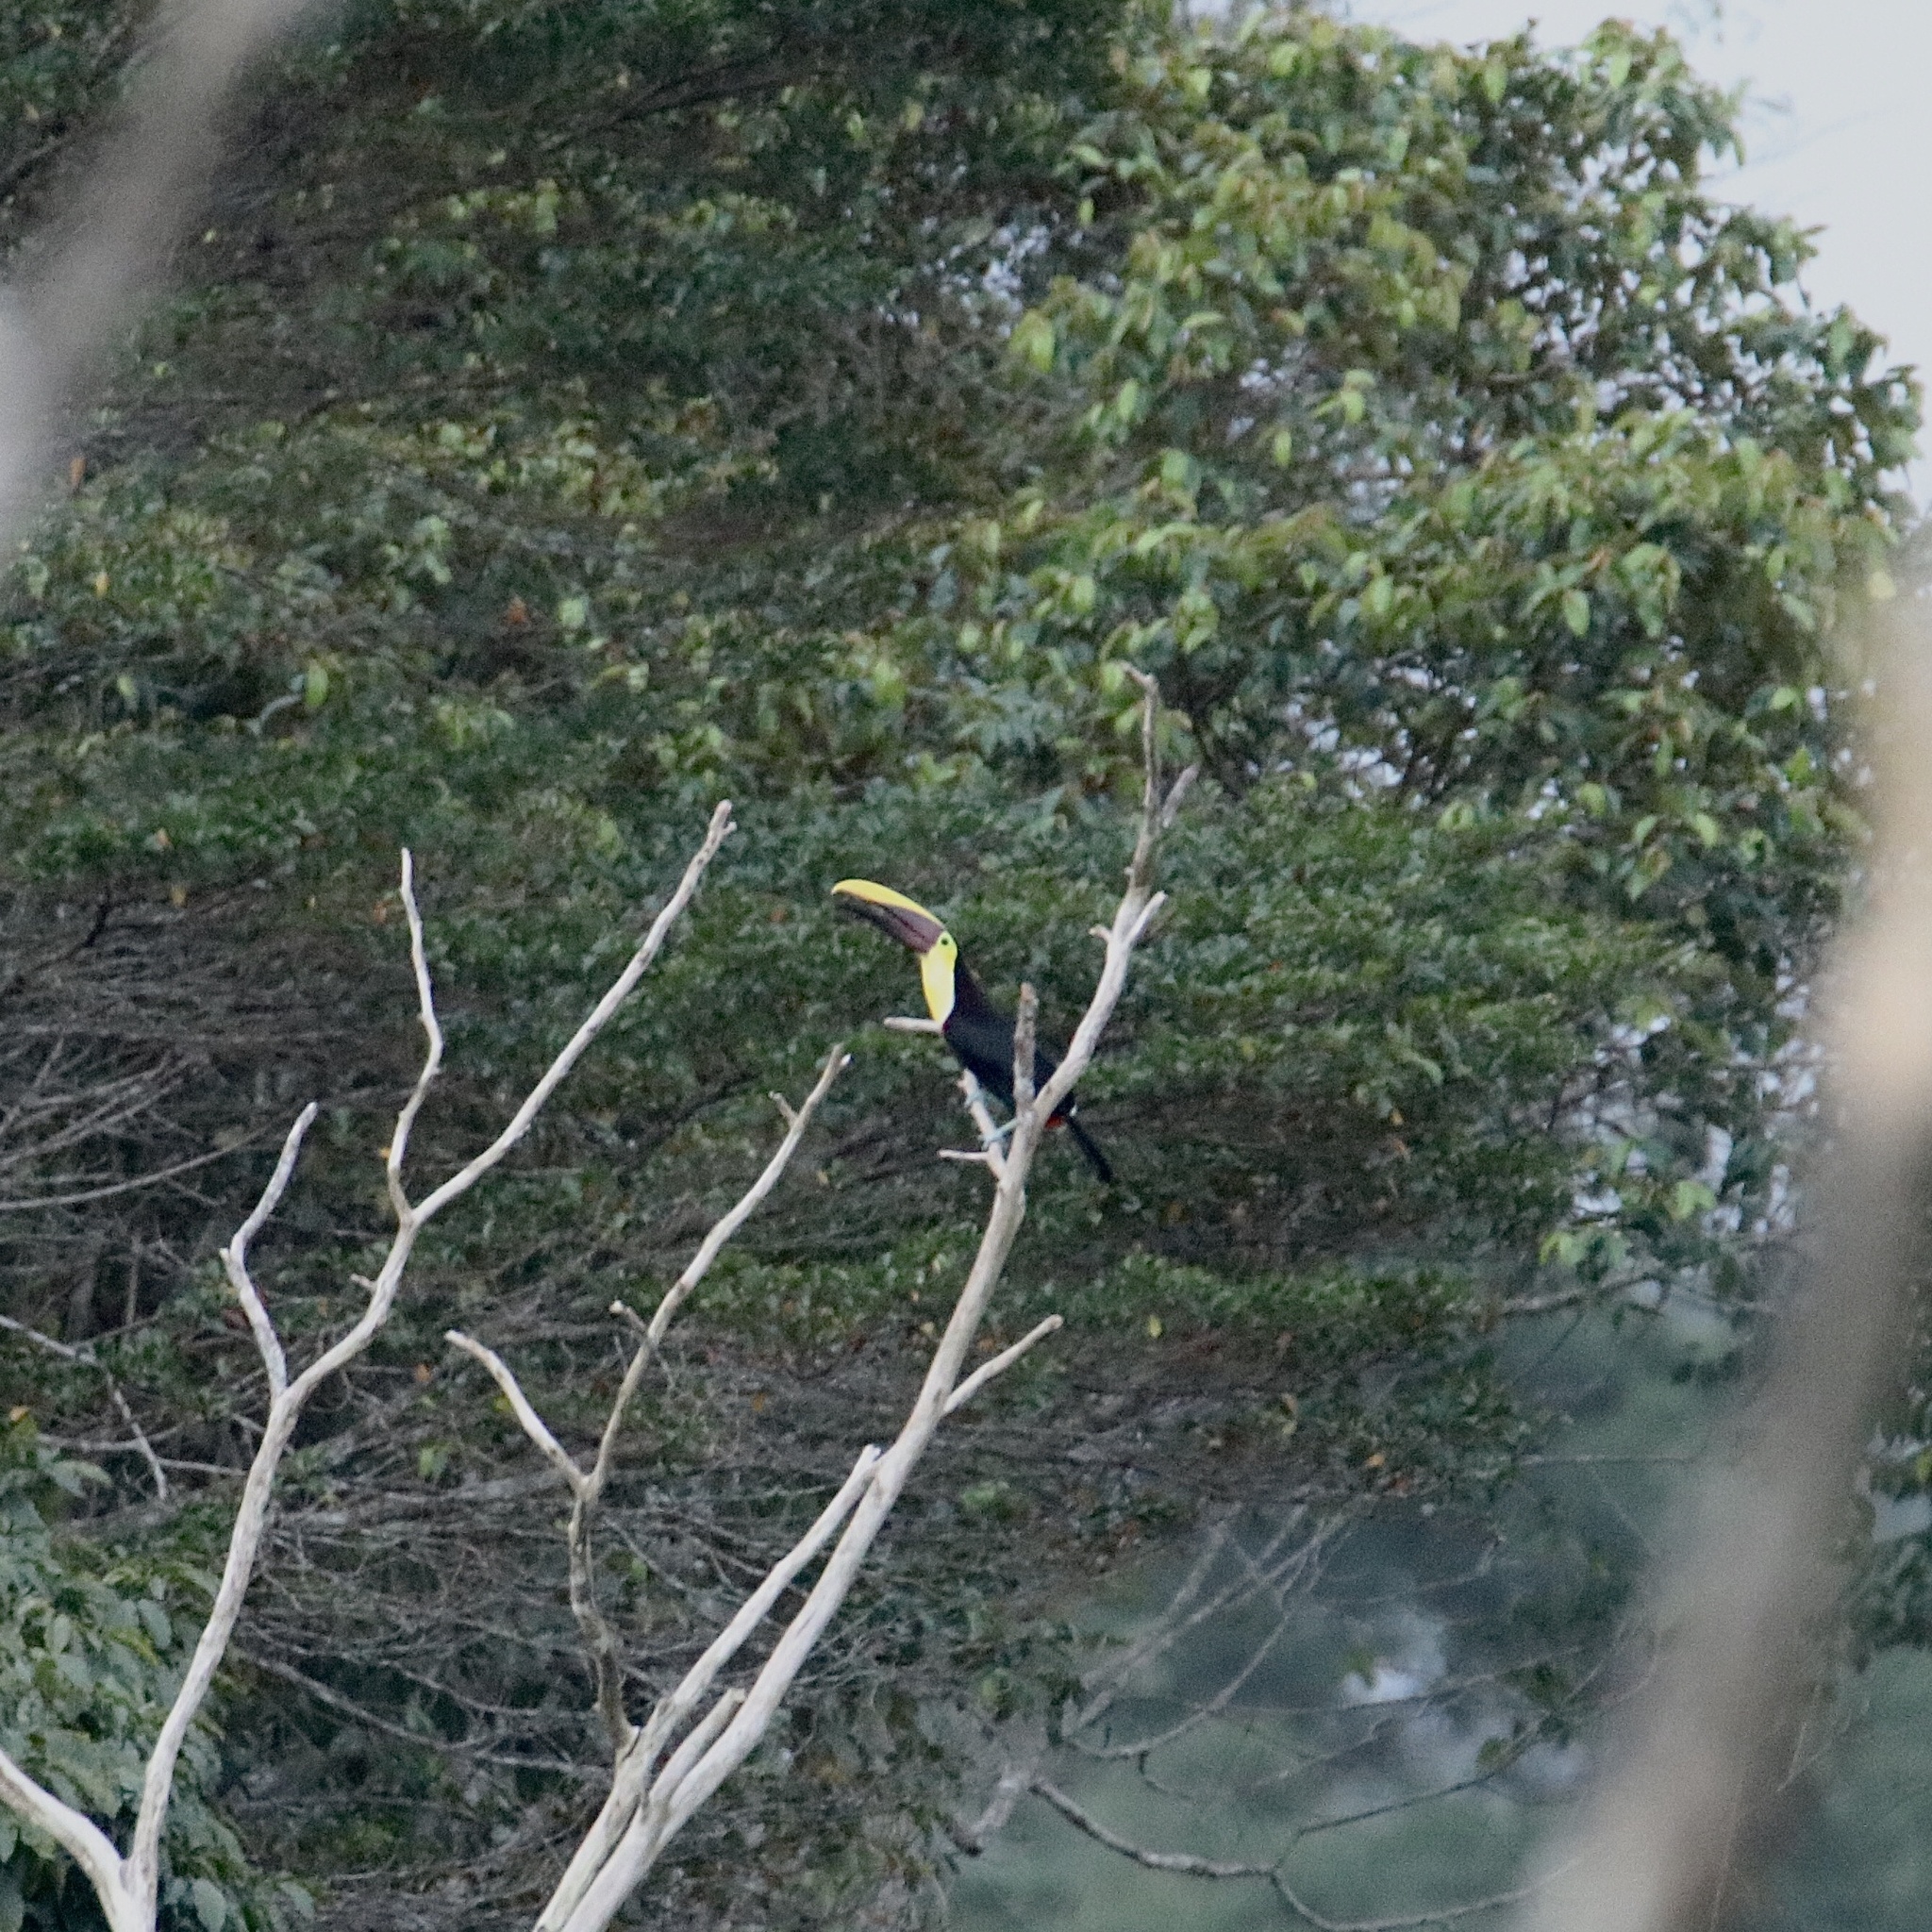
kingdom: Animalia
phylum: Chordata
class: Aves
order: Piciformes
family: Ramphastidae
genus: Ramphastos
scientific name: Ramphastos ambiguus
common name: Yellow-throated toucan
